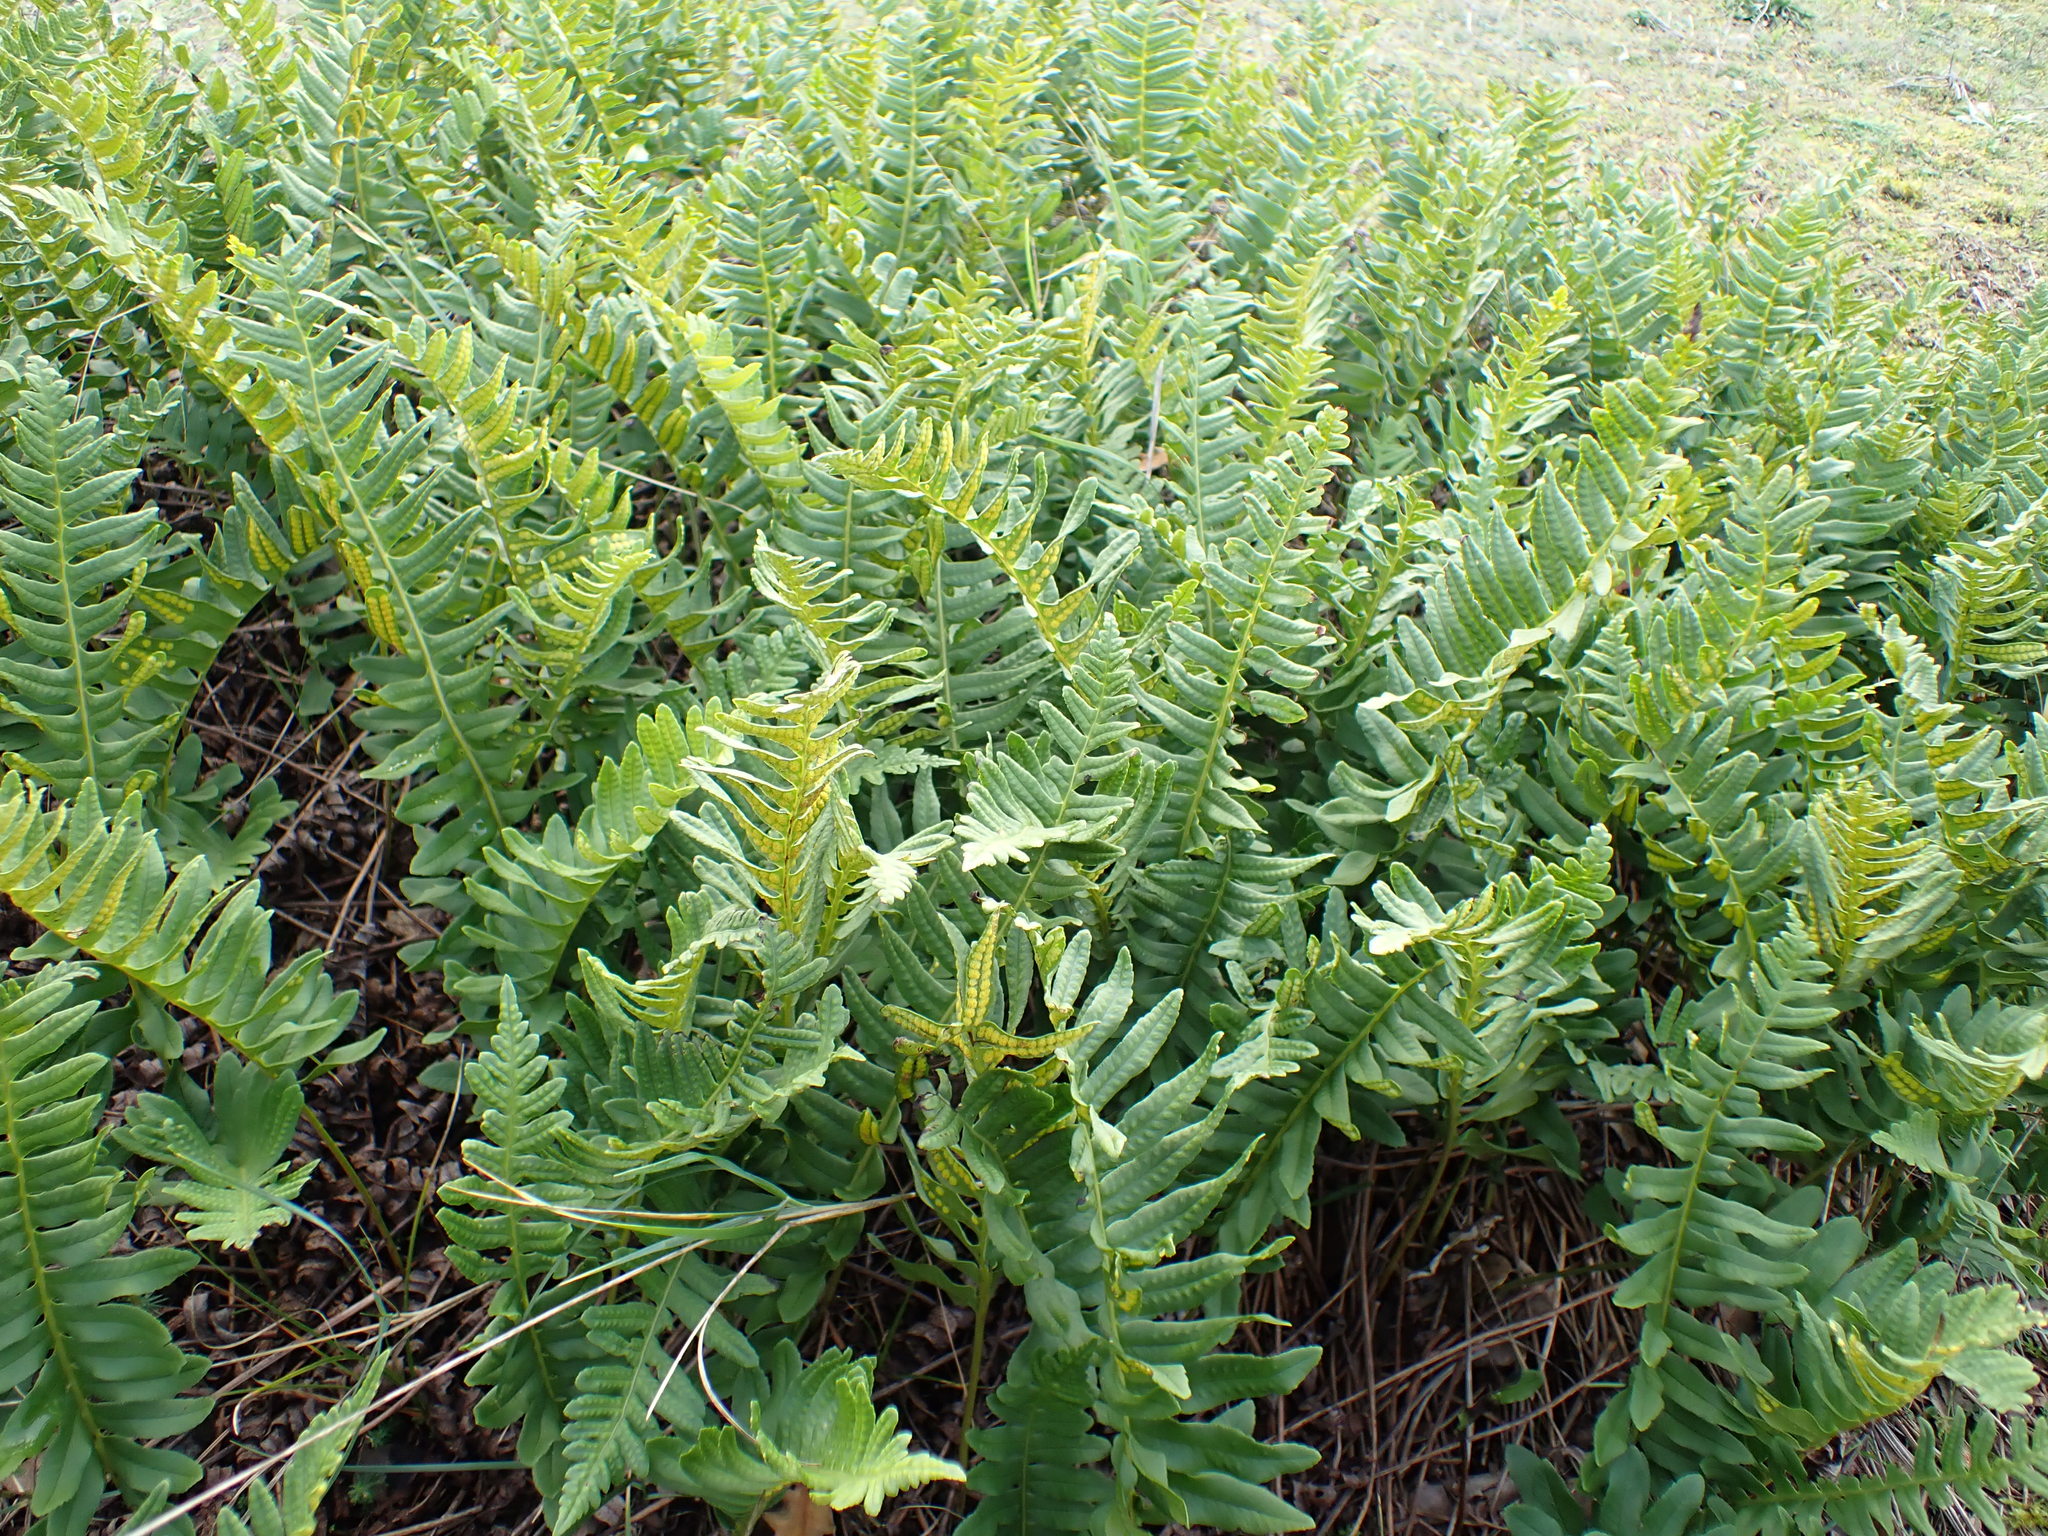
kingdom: Plantae
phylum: Tracheophyta
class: Polypodiopsida
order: Polypodiales
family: Polypodiaceae
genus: Polypodium
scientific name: Polypodium interjectum
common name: Intermediate polypody
